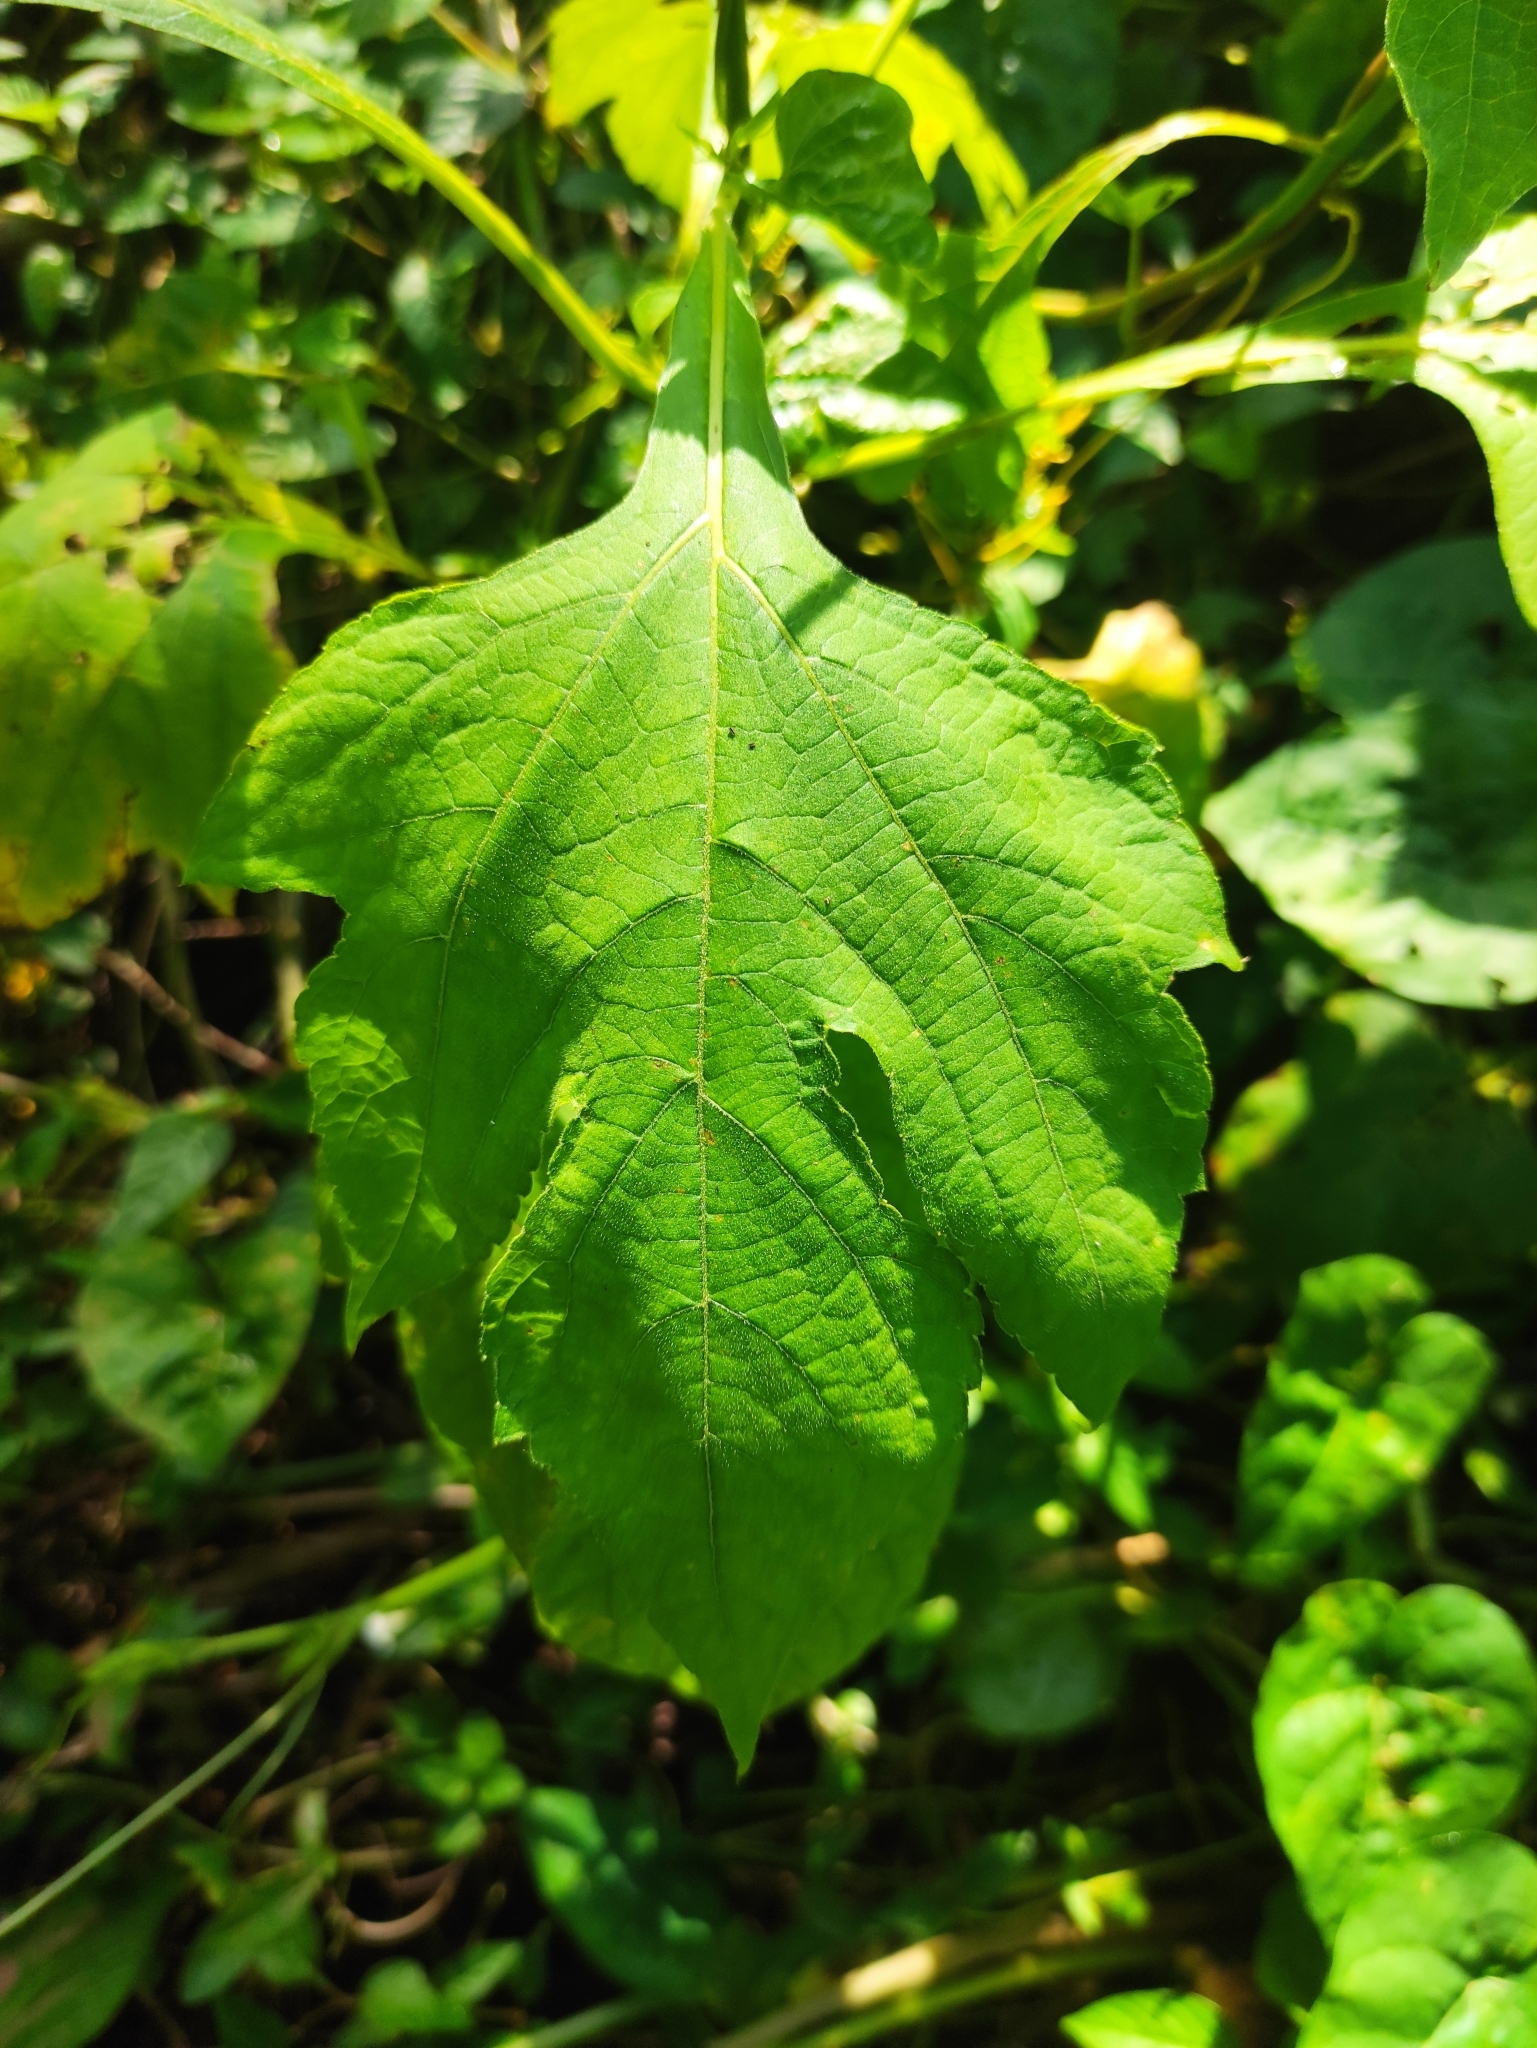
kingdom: Plantae
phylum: Tracheophyta
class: Magnoliopsida
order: Asterales
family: Asteraceae
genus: Tithonia
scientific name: Tithonia diversifolia
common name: Tree marigold
